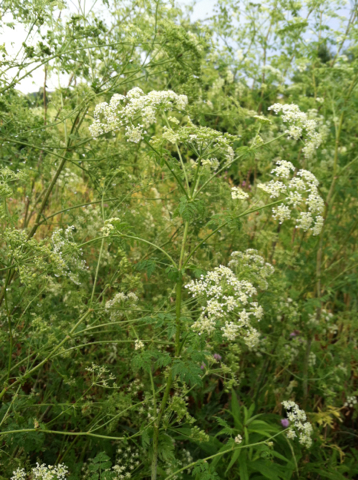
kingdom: Plantae
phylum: Tracheophyta
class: Magnoliopsida
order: Apiales
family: Apiaceae
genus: Conium
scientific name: Conium maculatum
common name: Hemlock
